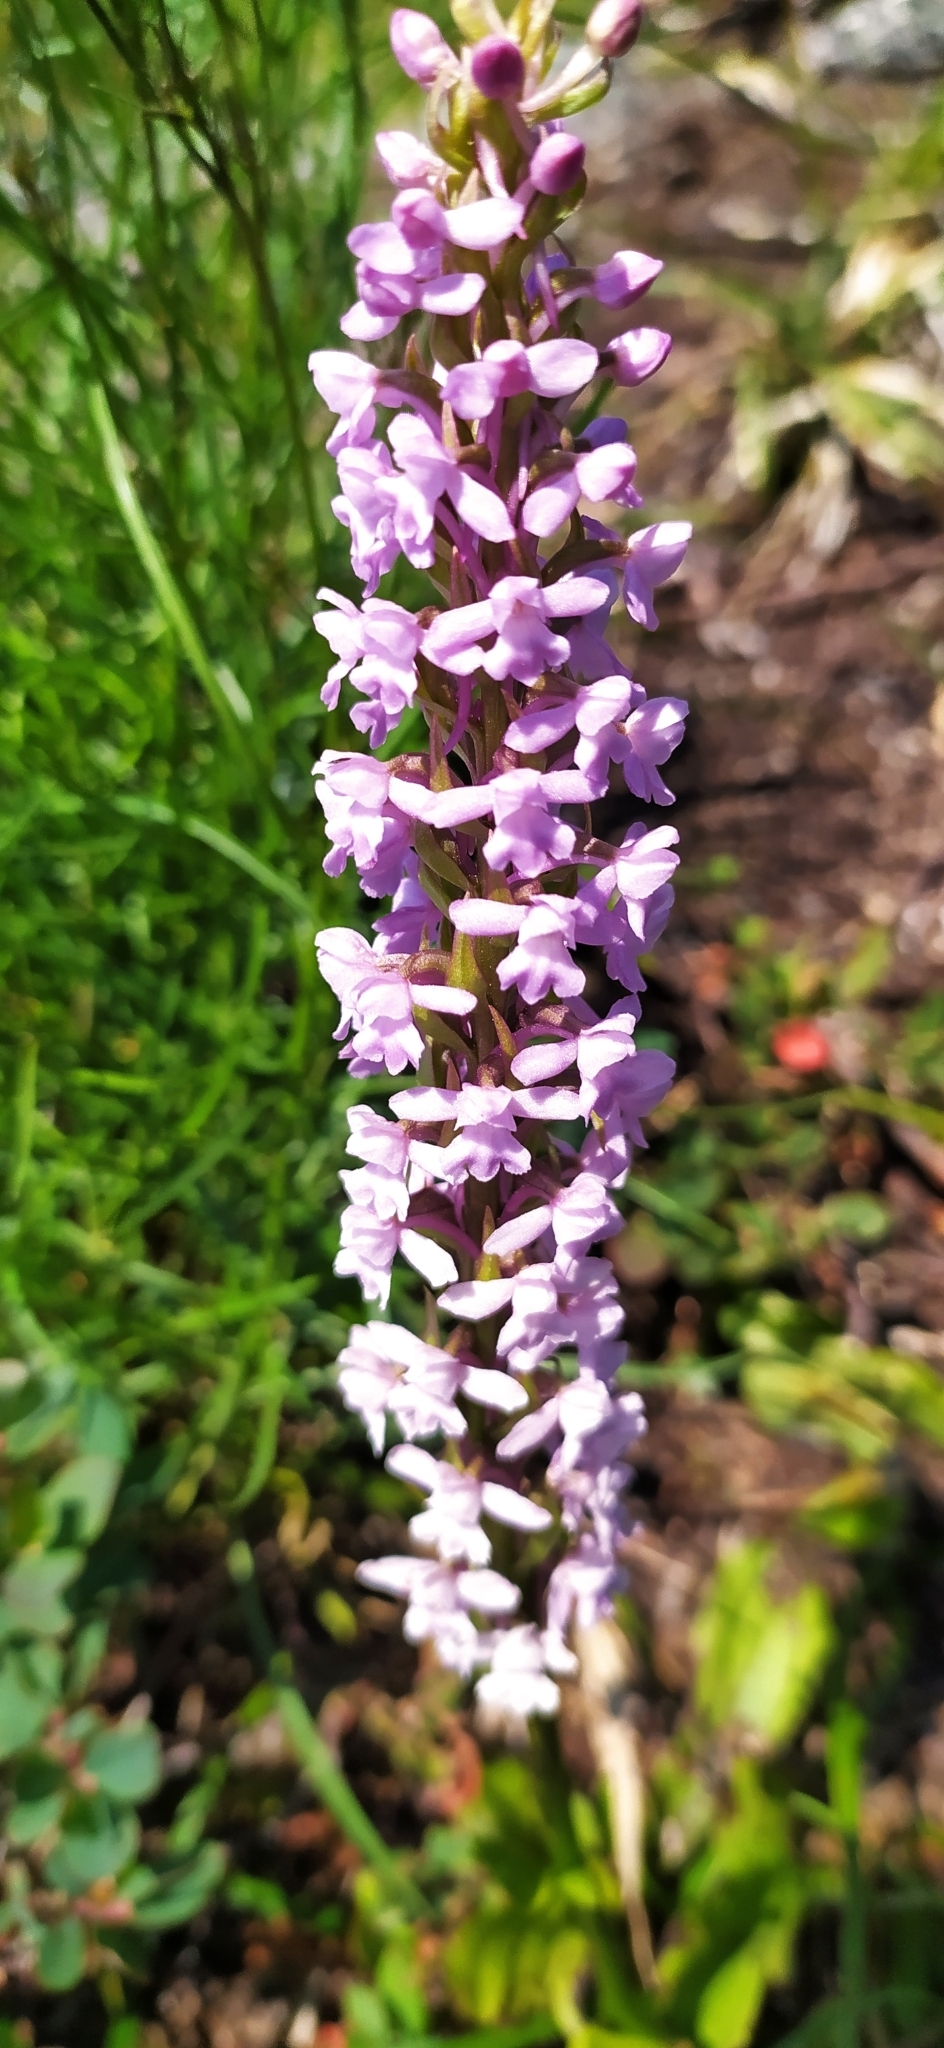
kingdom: Plantae
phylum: Tracheophyta
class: Liliopsida
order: Asparagales
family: Orchidaceae
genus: Gymnadenia
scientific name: Gymnadenia conopsea
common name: Fragrant orchid
